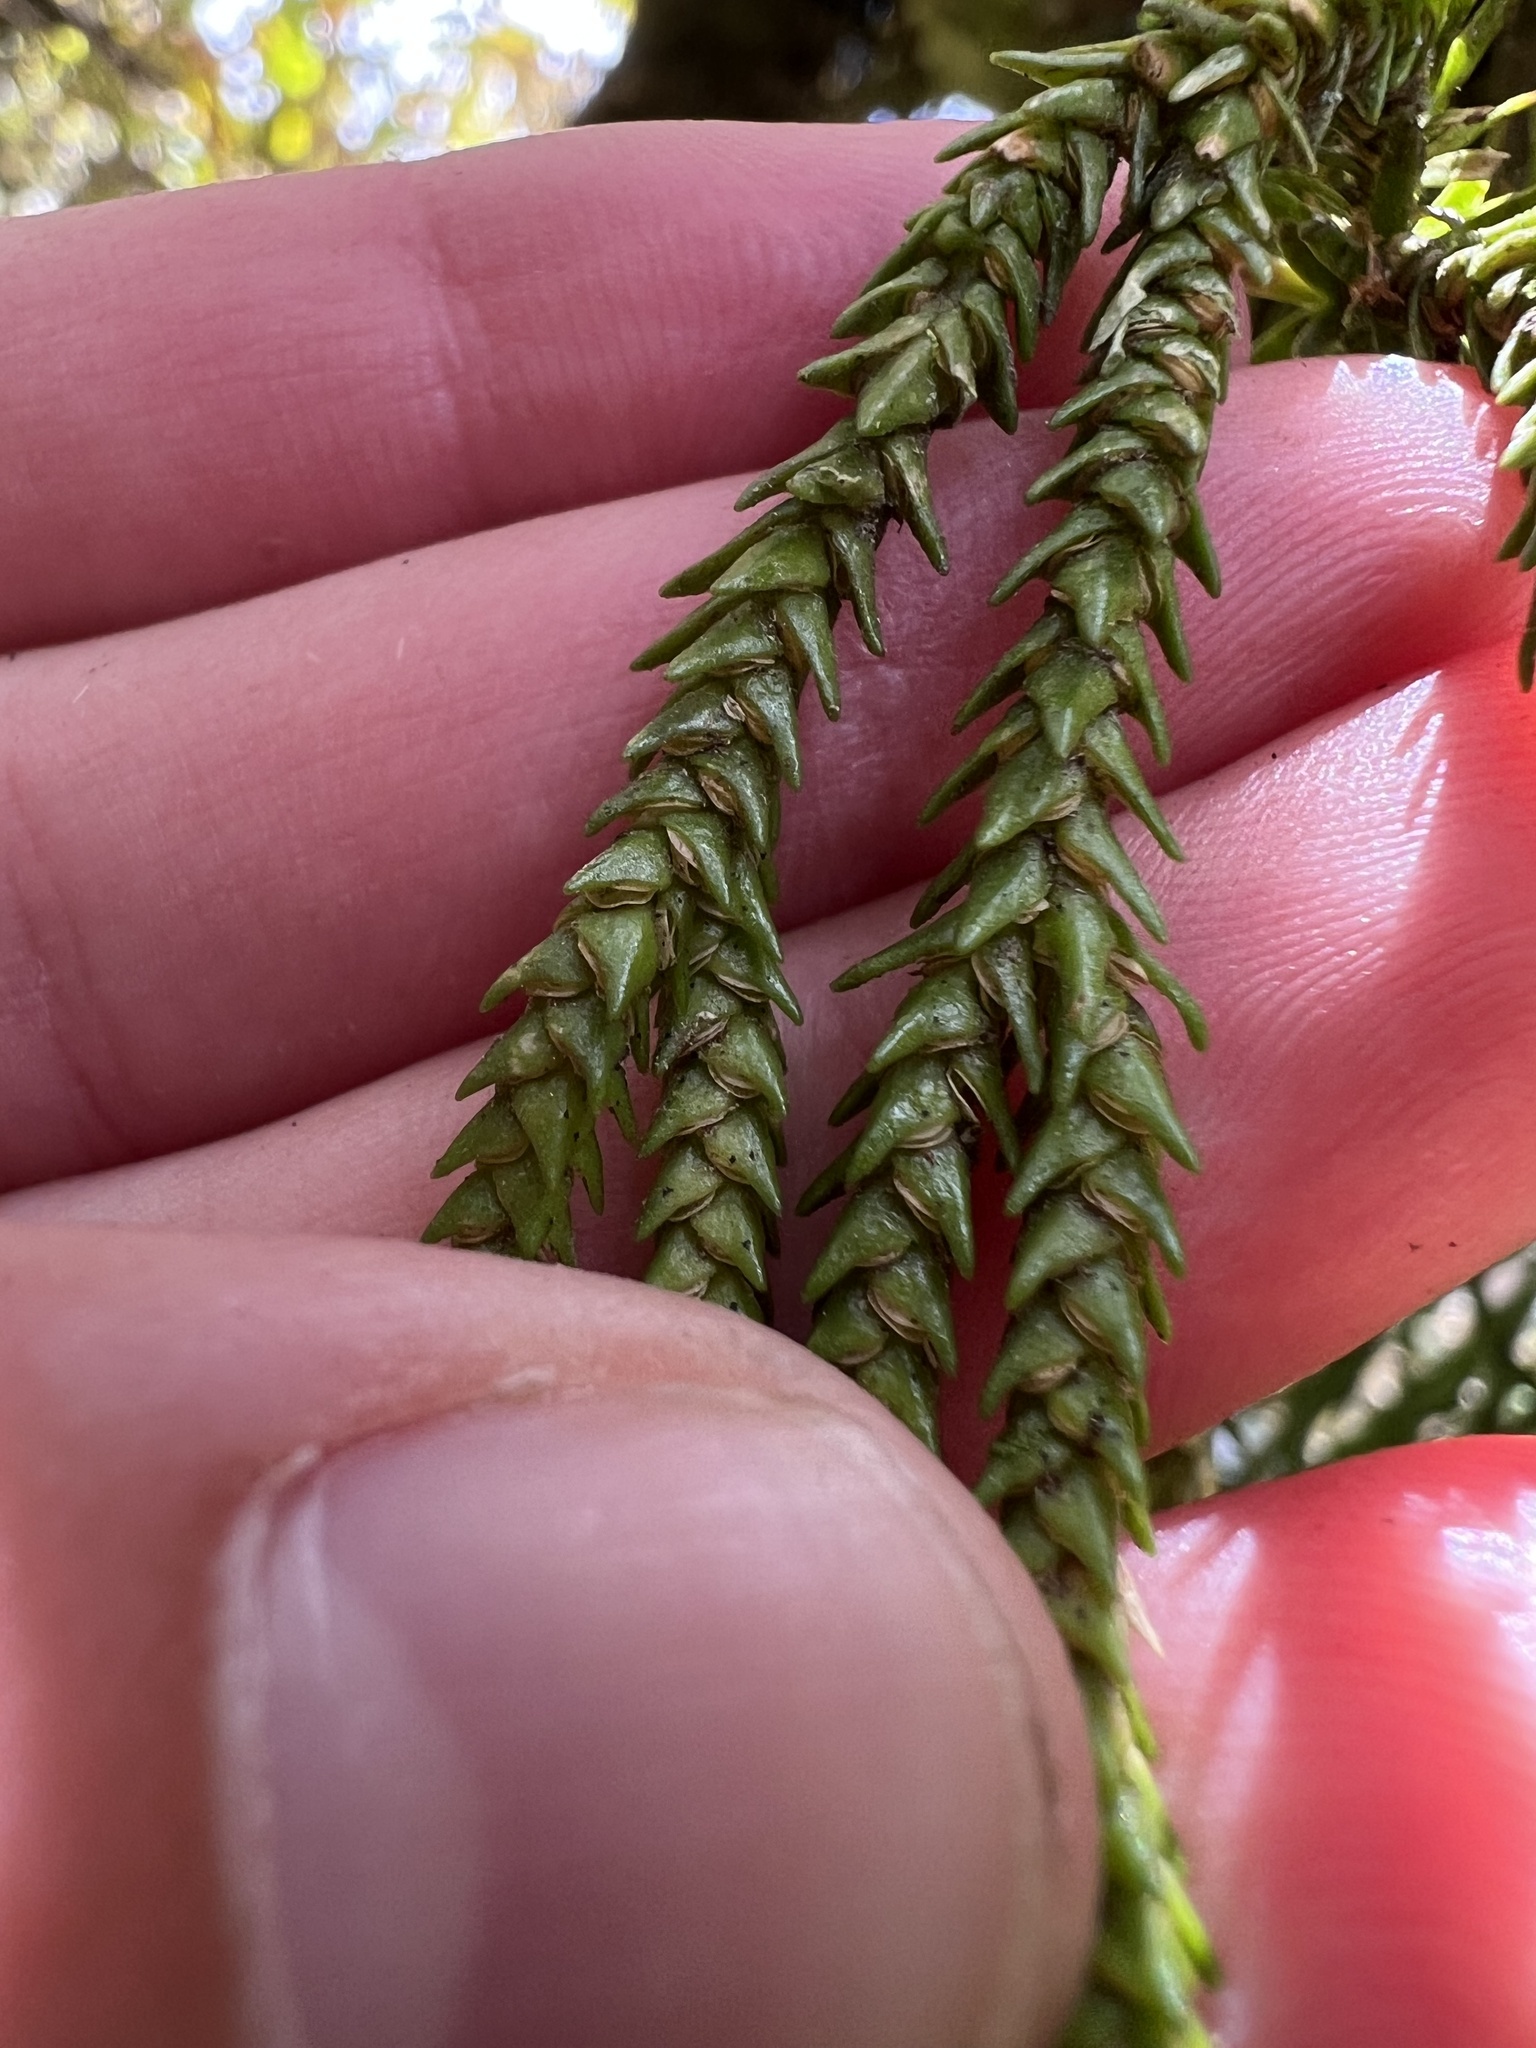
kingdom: Plantae
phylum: Tracheophyta
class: Lycopodiopsida
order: Lycopodiales
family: Lycopodiaceae
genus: Phlegmariurus
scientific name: Phlegmariurus varius
